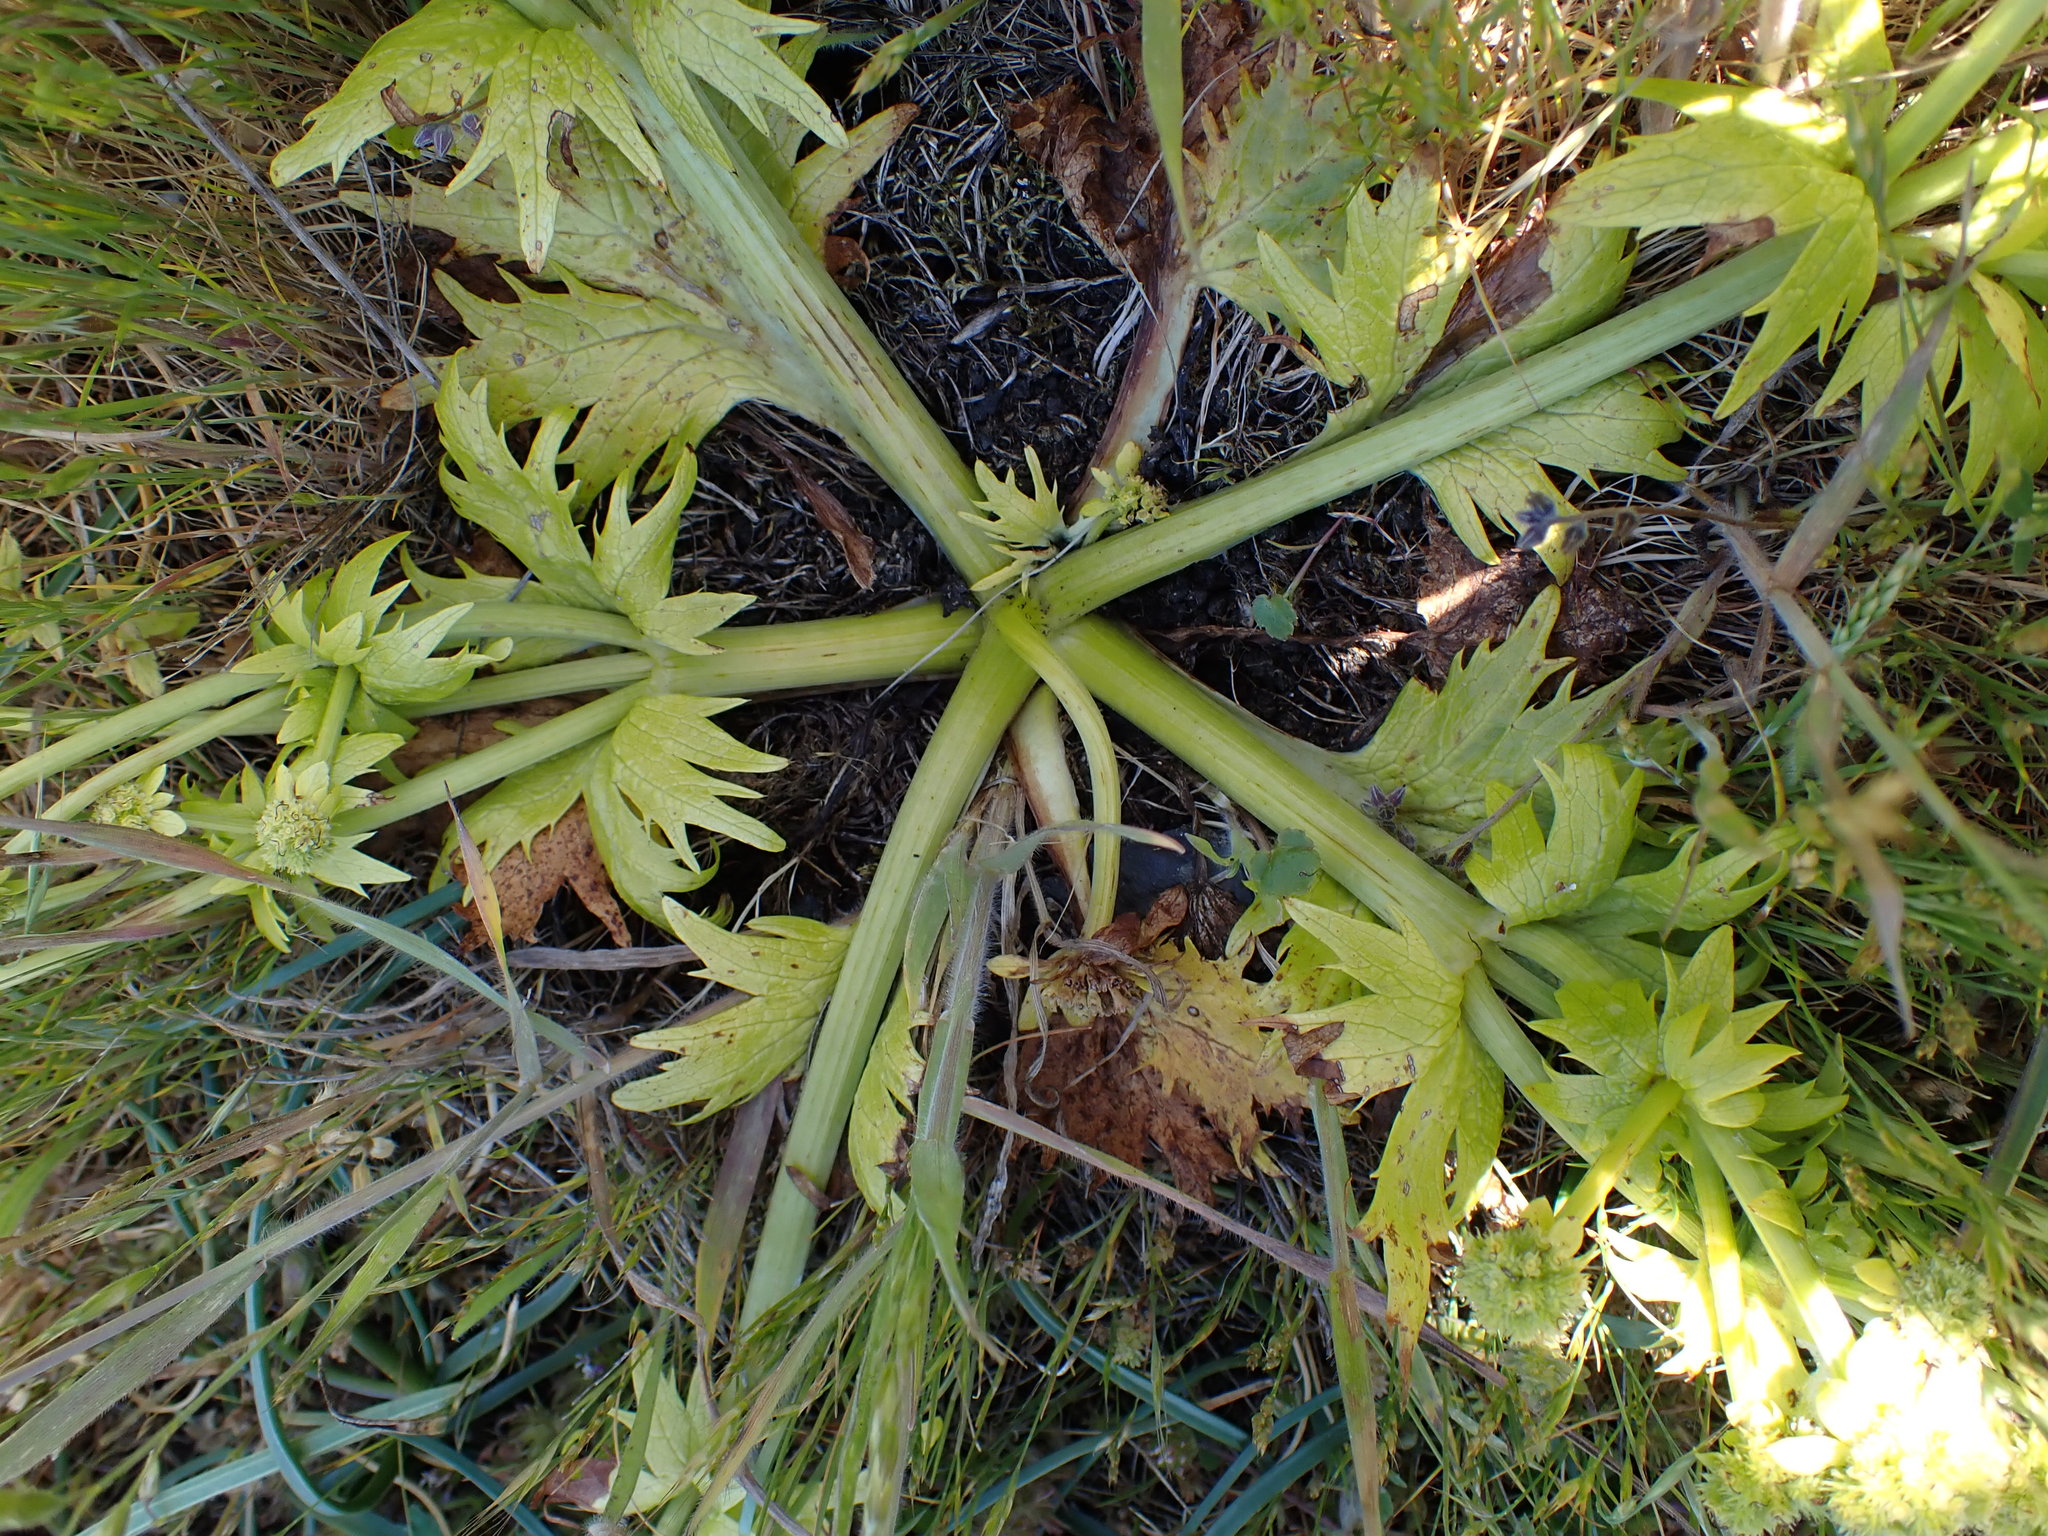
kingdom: Plantae
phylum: Tracheophyta
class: Magnoliopsida
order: Apiales
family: Apiaceae
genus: Sanicula
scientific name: Sanicula arctopoides
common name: Footsteps-of-spring
